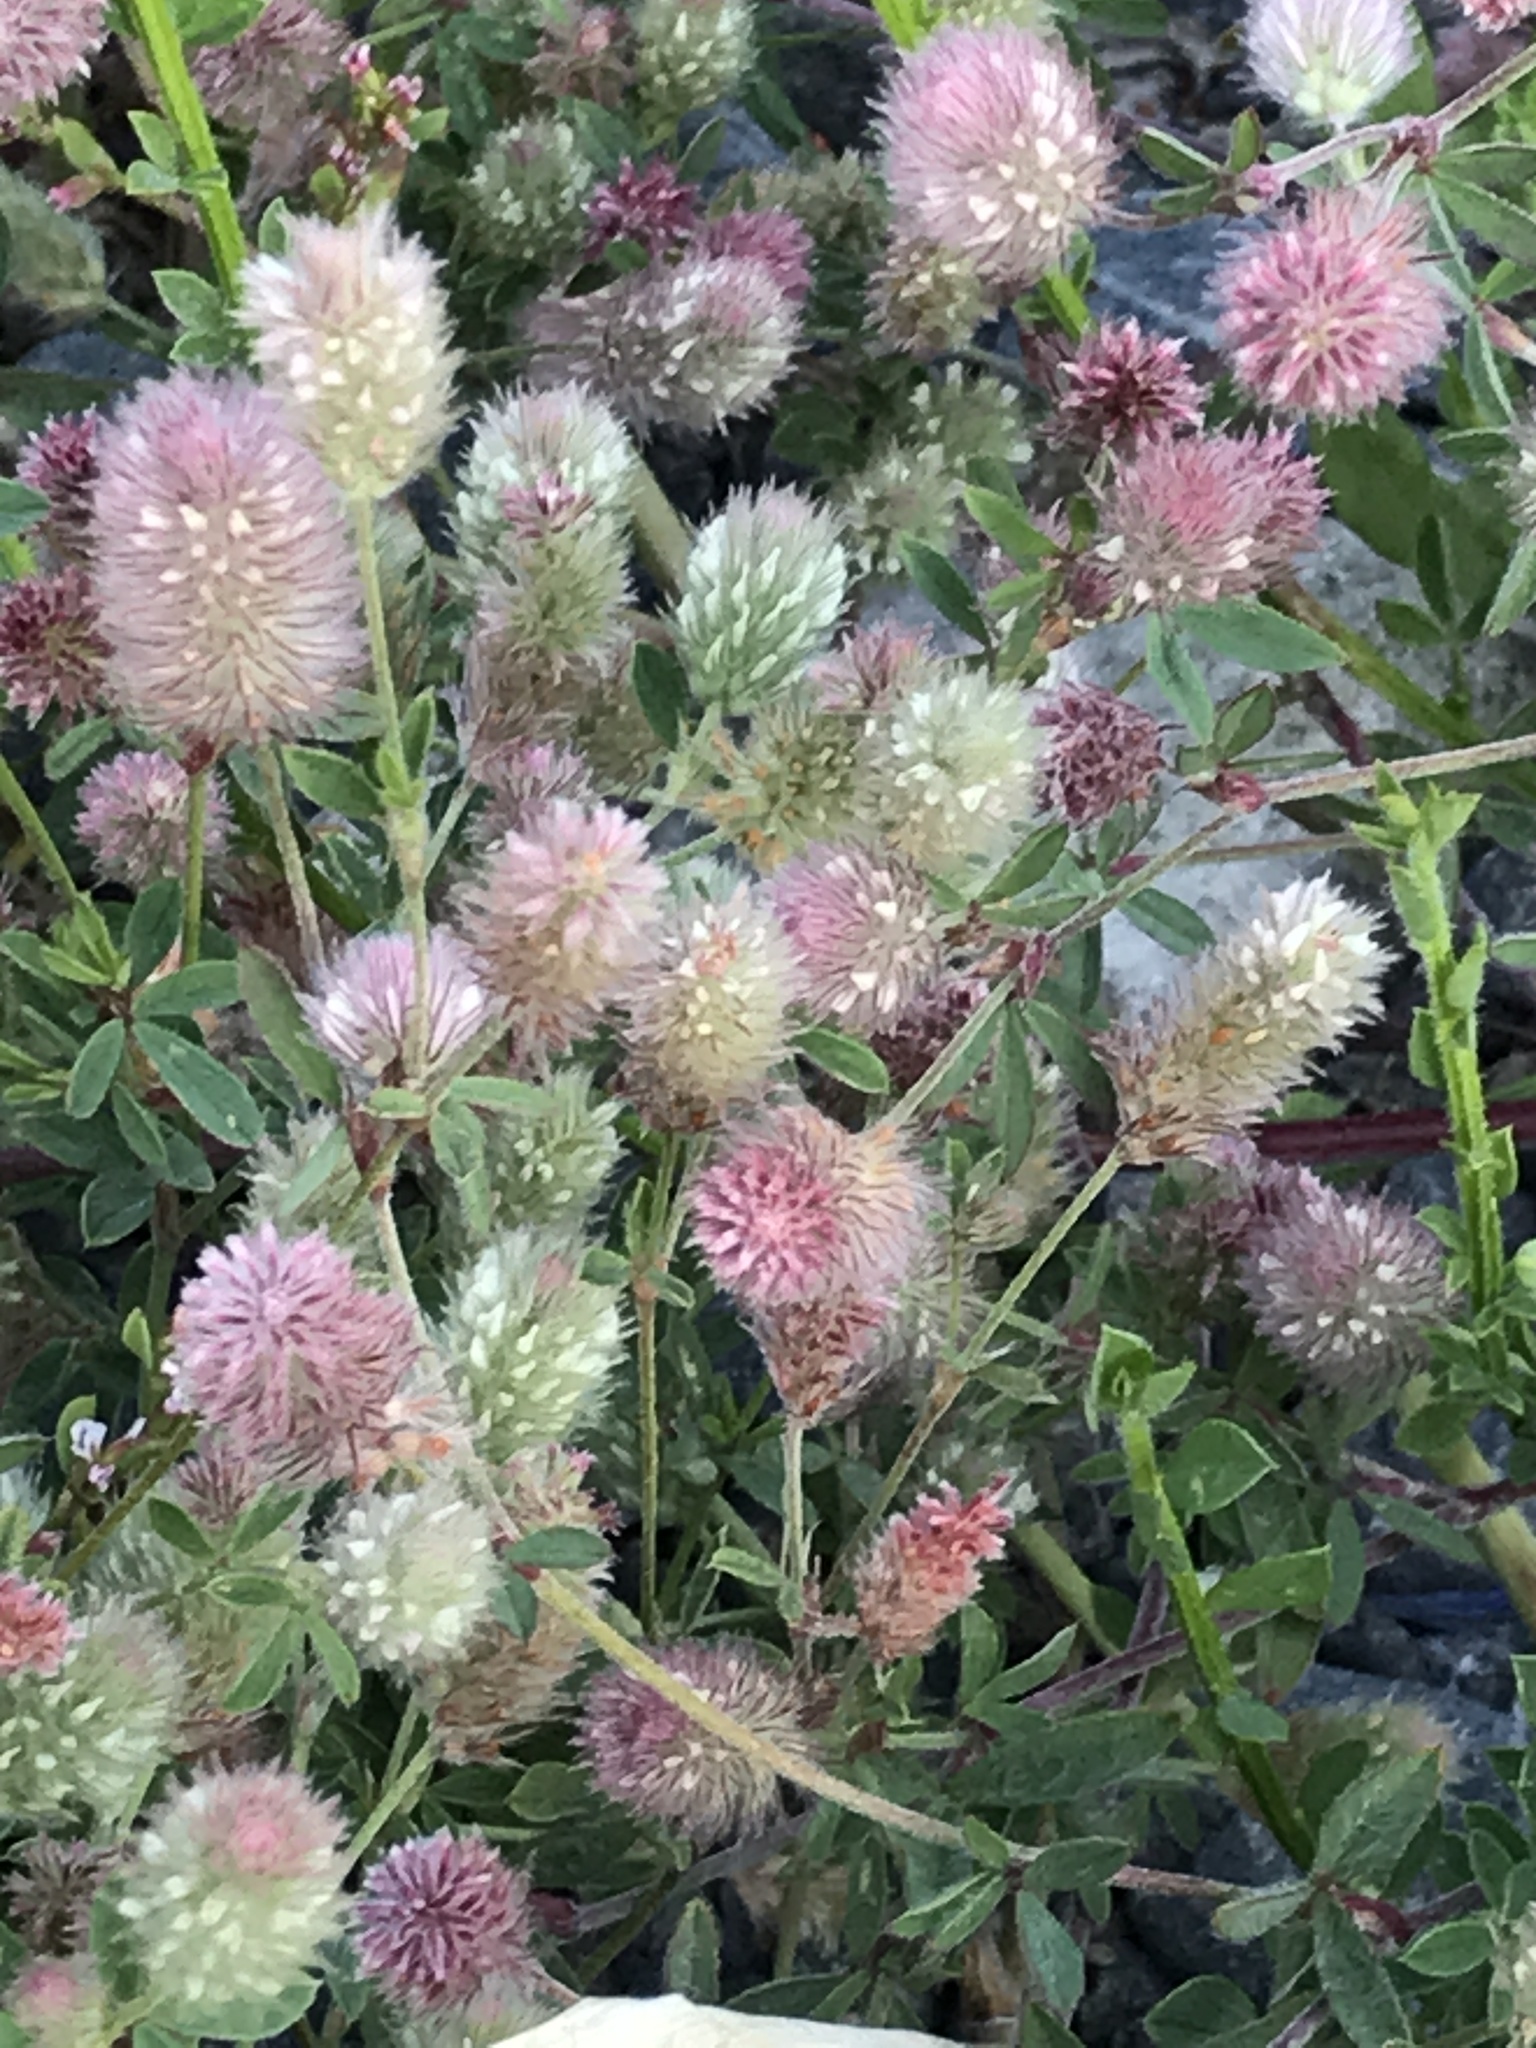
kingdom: Plantae
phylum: Tracheophyta
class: Magnoliopsida
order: Fabales
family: Fabaceae
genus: Trifolium
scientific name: Trifolium arvense
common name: Hare's-foot clover
